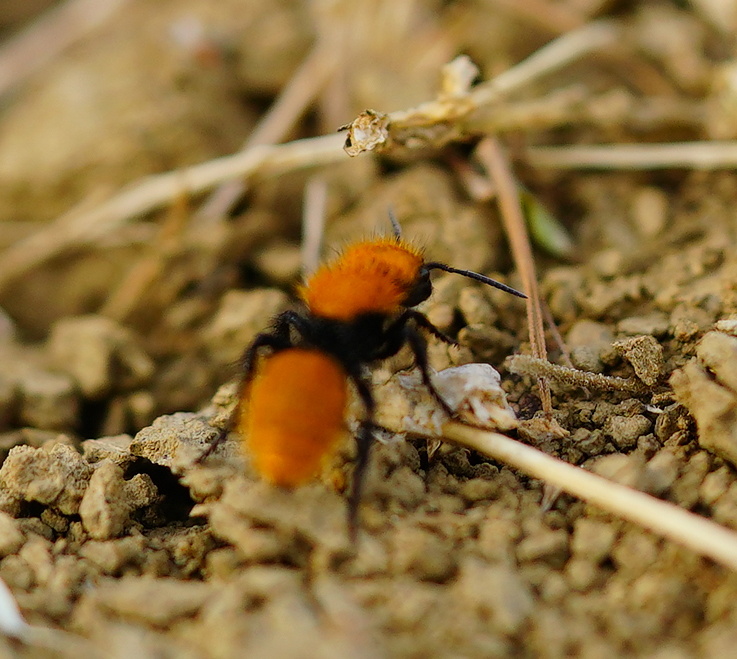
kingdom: Animalia
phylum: Arthropoda
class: Insecta
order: Hymenoptera
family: Mutillidae
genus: Dasymutilla
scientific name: Dasymutilla
